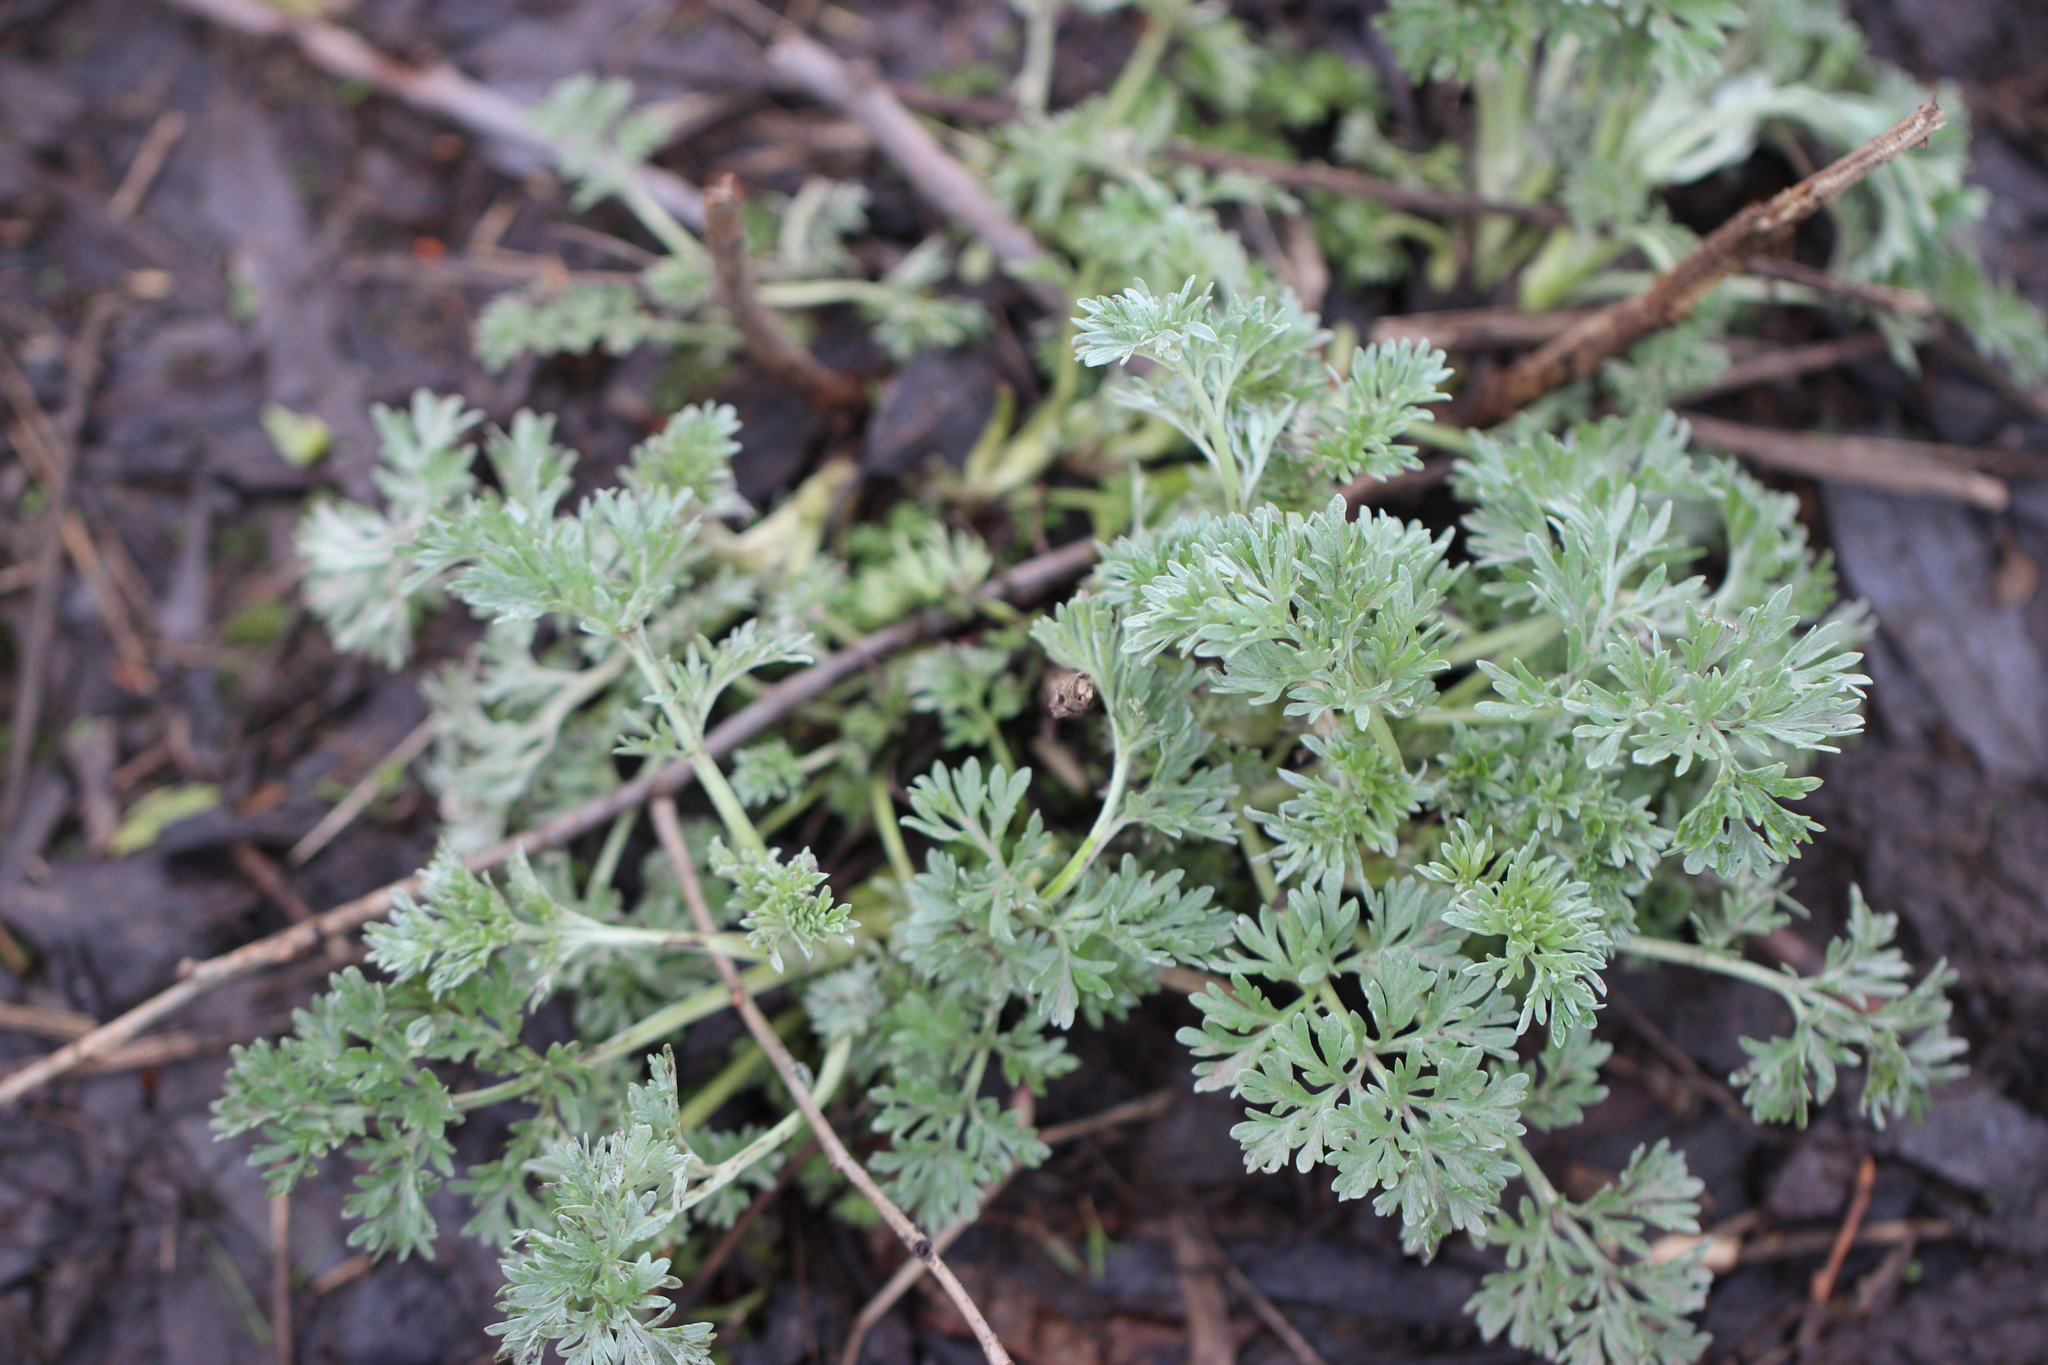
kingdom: Plantae
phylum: Tracheophyta
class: Magnoliopsida
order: Asterales
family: Asteraceae
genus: Artemisia
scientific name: Artemisia absinthium
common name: Wormwood
